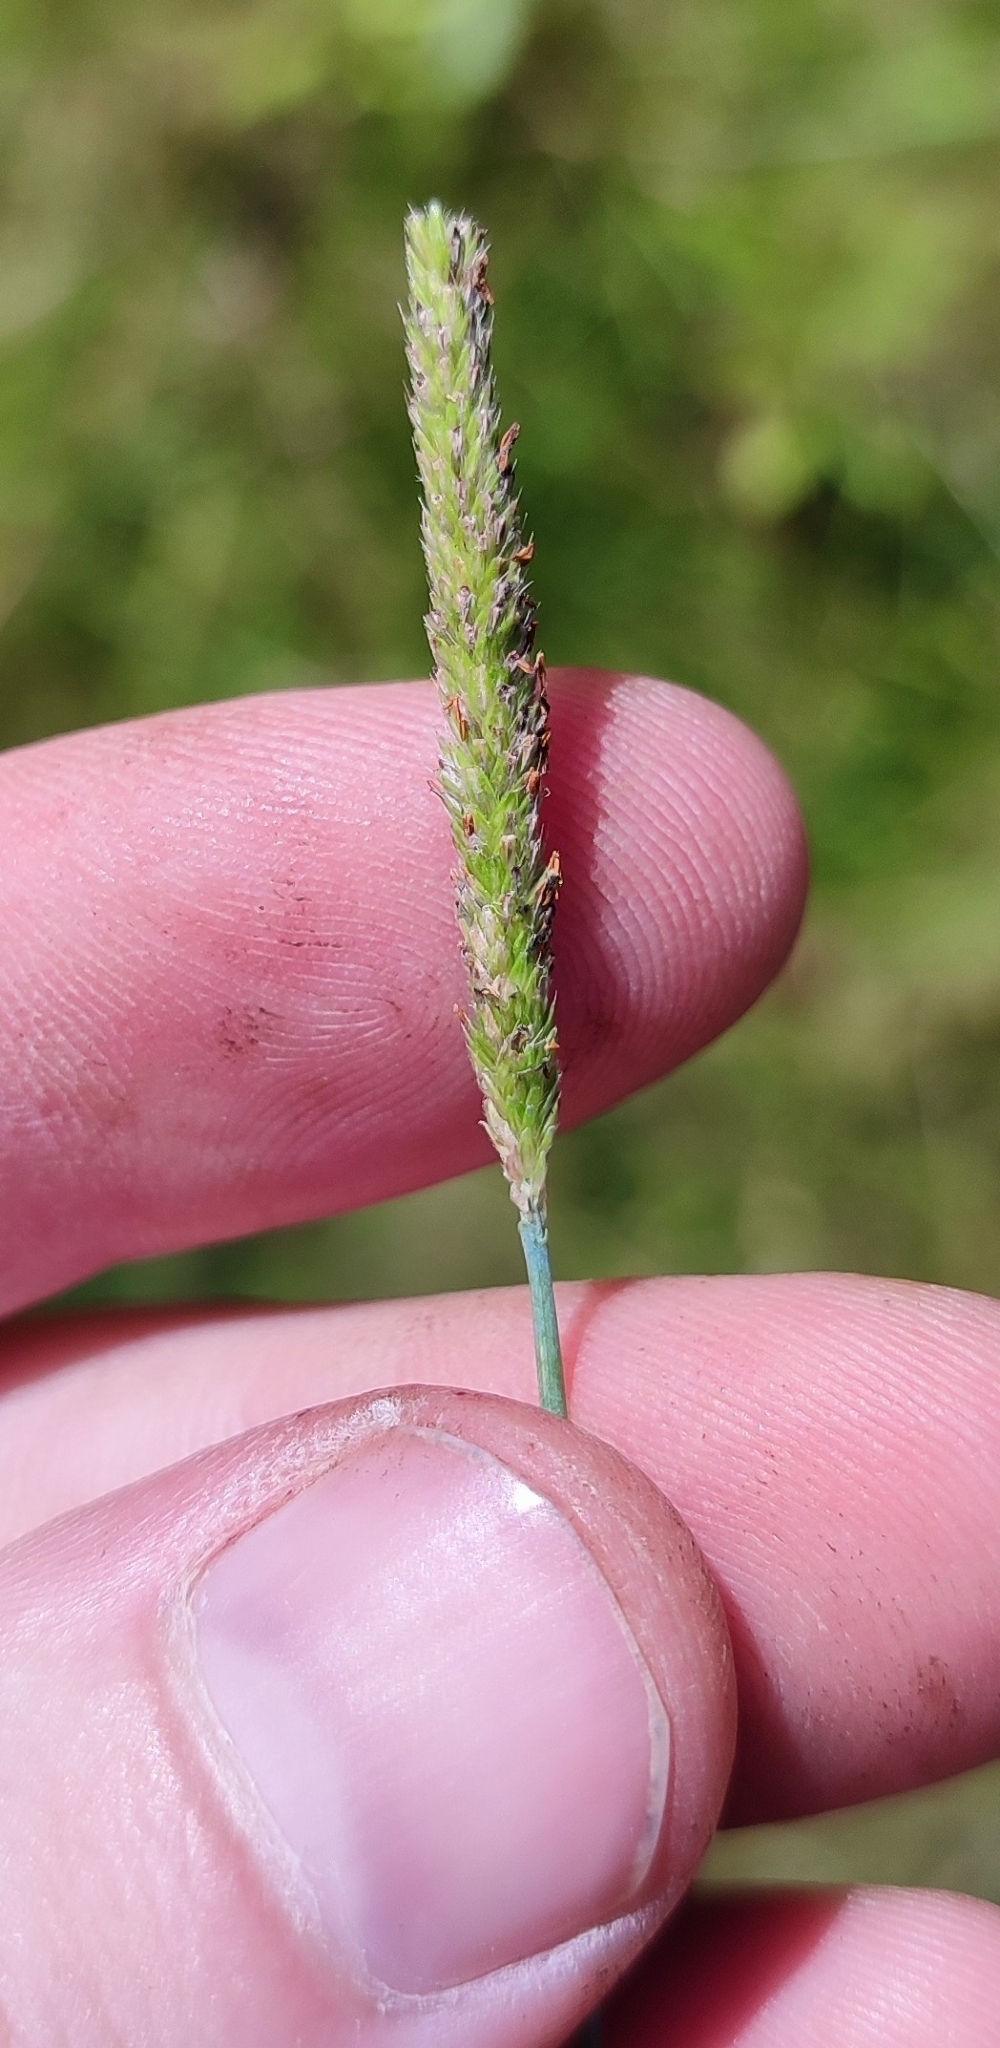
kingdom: Plantae
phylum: Tracheophyta
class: Liliopsida
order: Poales
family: Poaceae
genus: Alopecurus
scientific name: Alopecurus aequalis
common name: Orange foxtail
